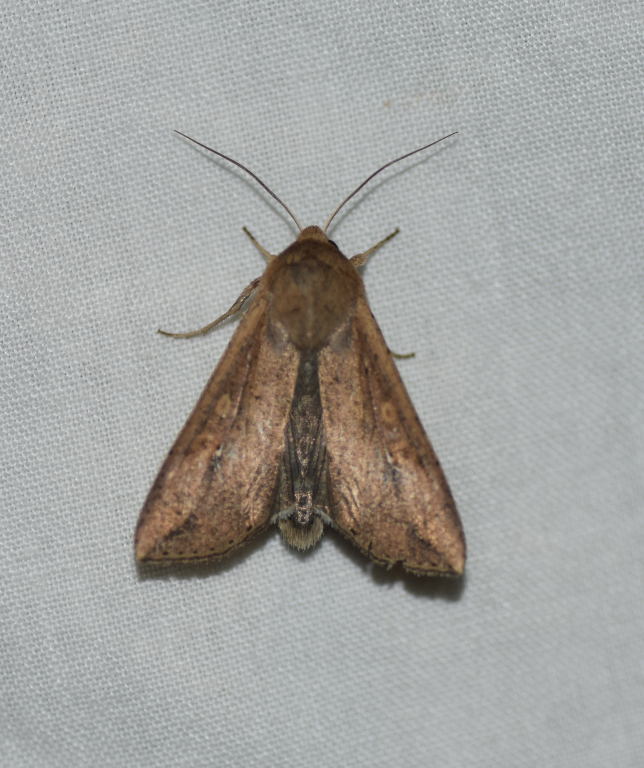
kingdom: Animalia
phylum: Arthropoda
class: Insecta
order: Lepidoptera
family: Noctuidae
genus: Mythimna
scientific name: Mythimna unipuncta
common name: White-speck
